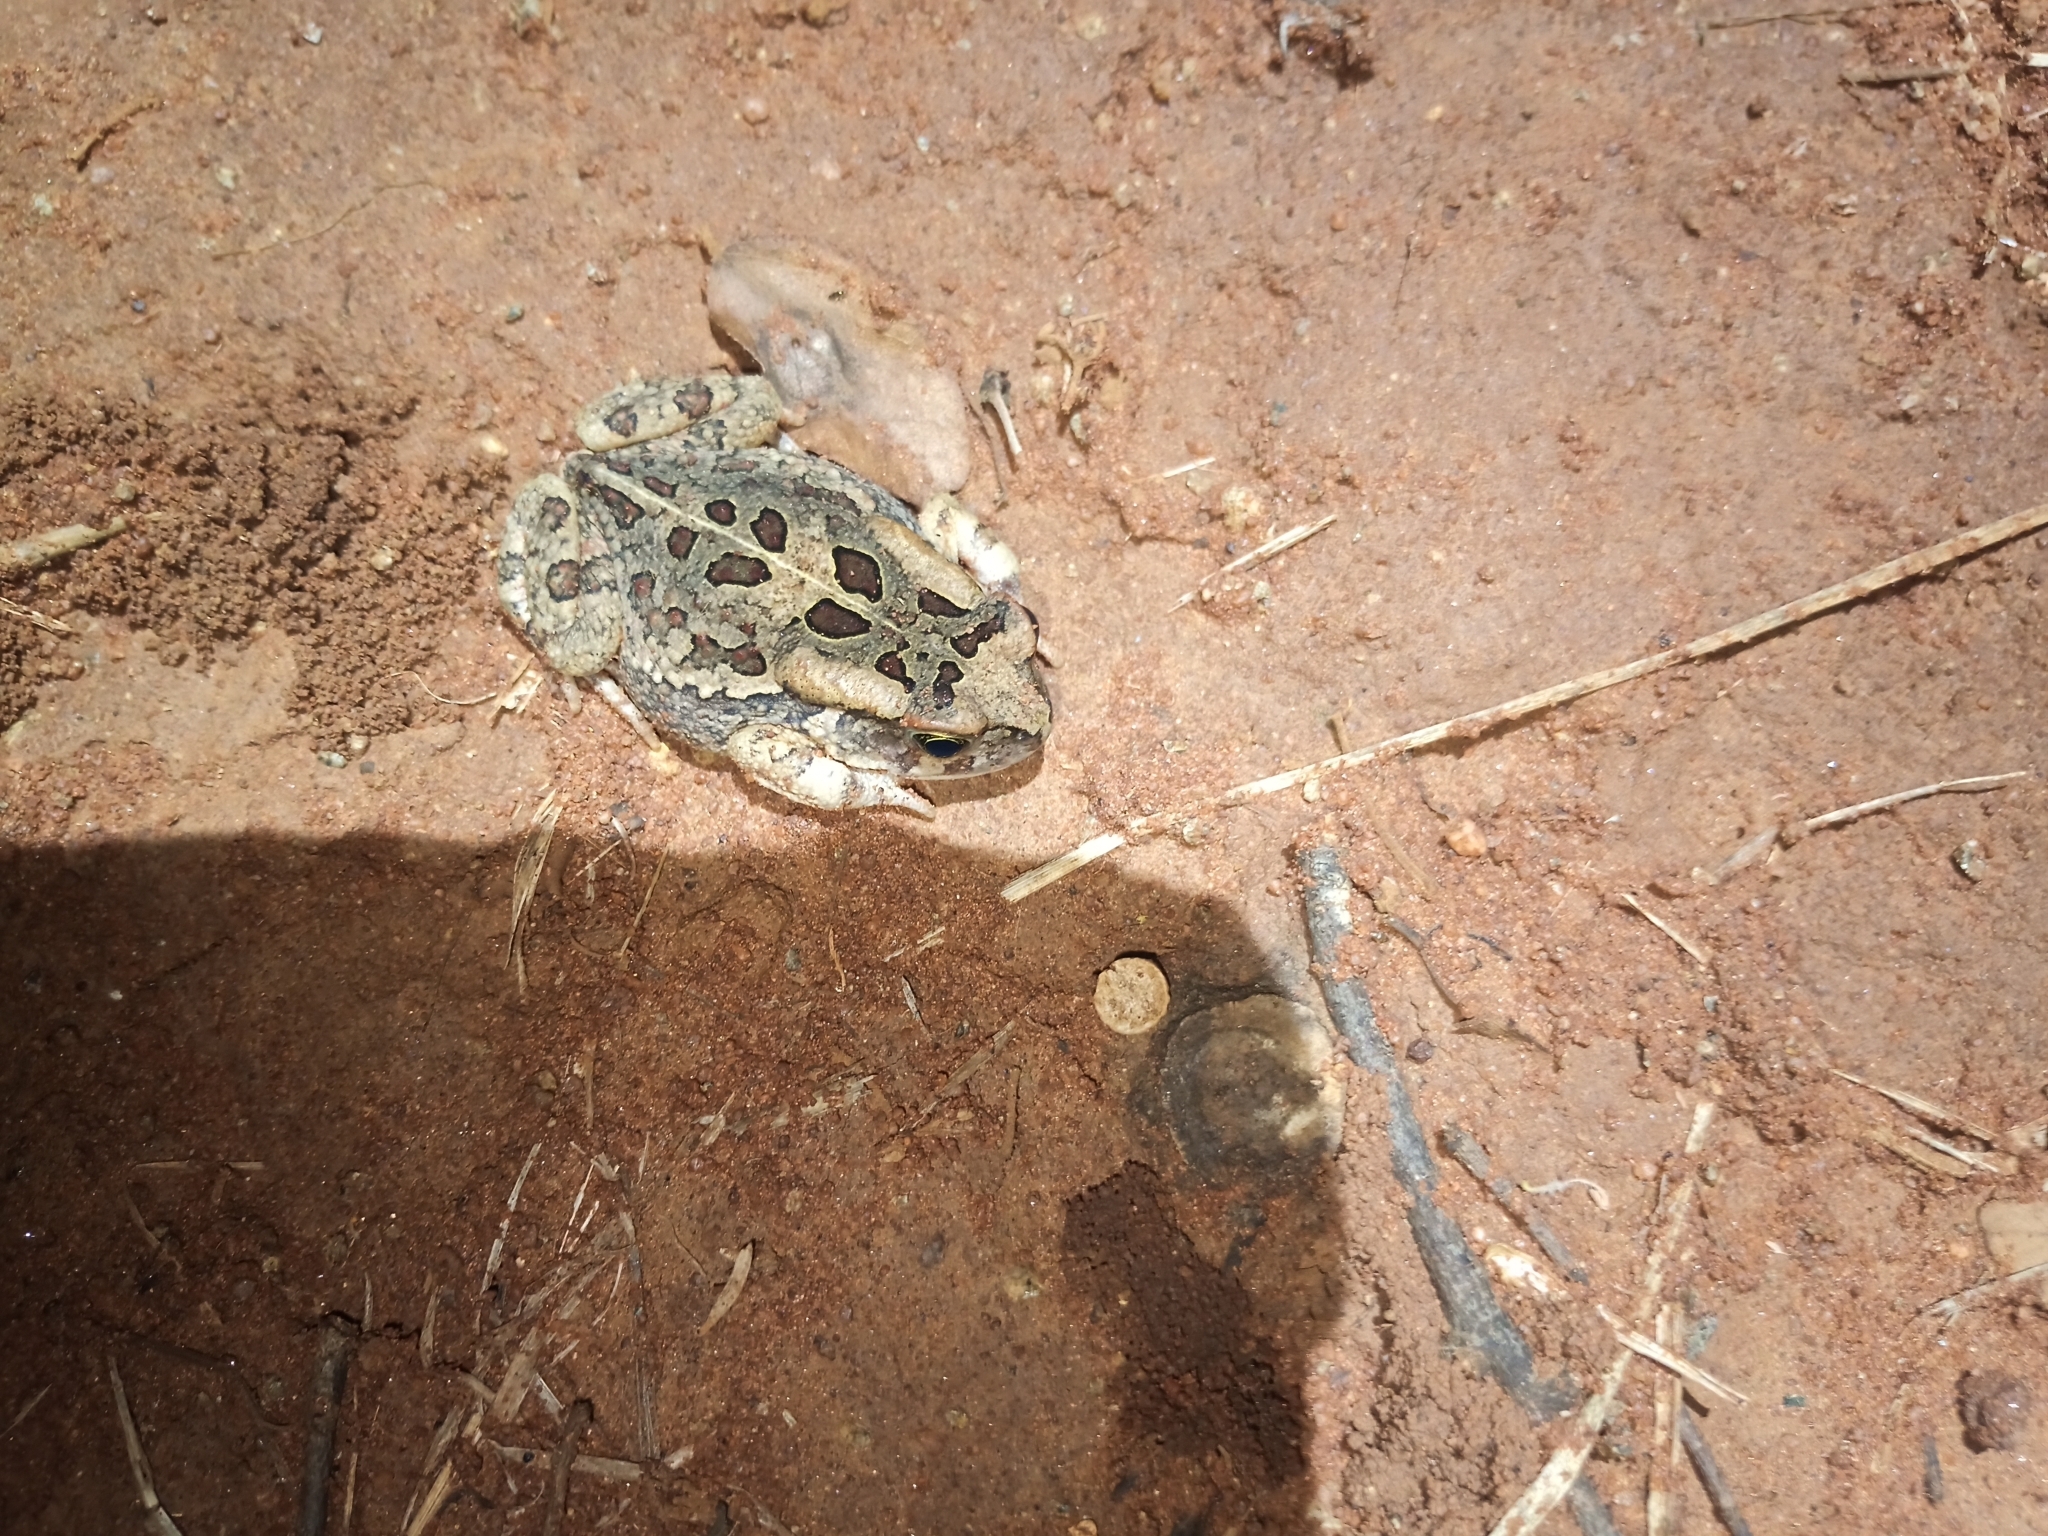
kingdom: Animalia
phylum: Chordata
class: Amphibia
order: Anura
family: Bufonidae
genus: Sclerophrys
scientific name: Sclerophrys garmani
